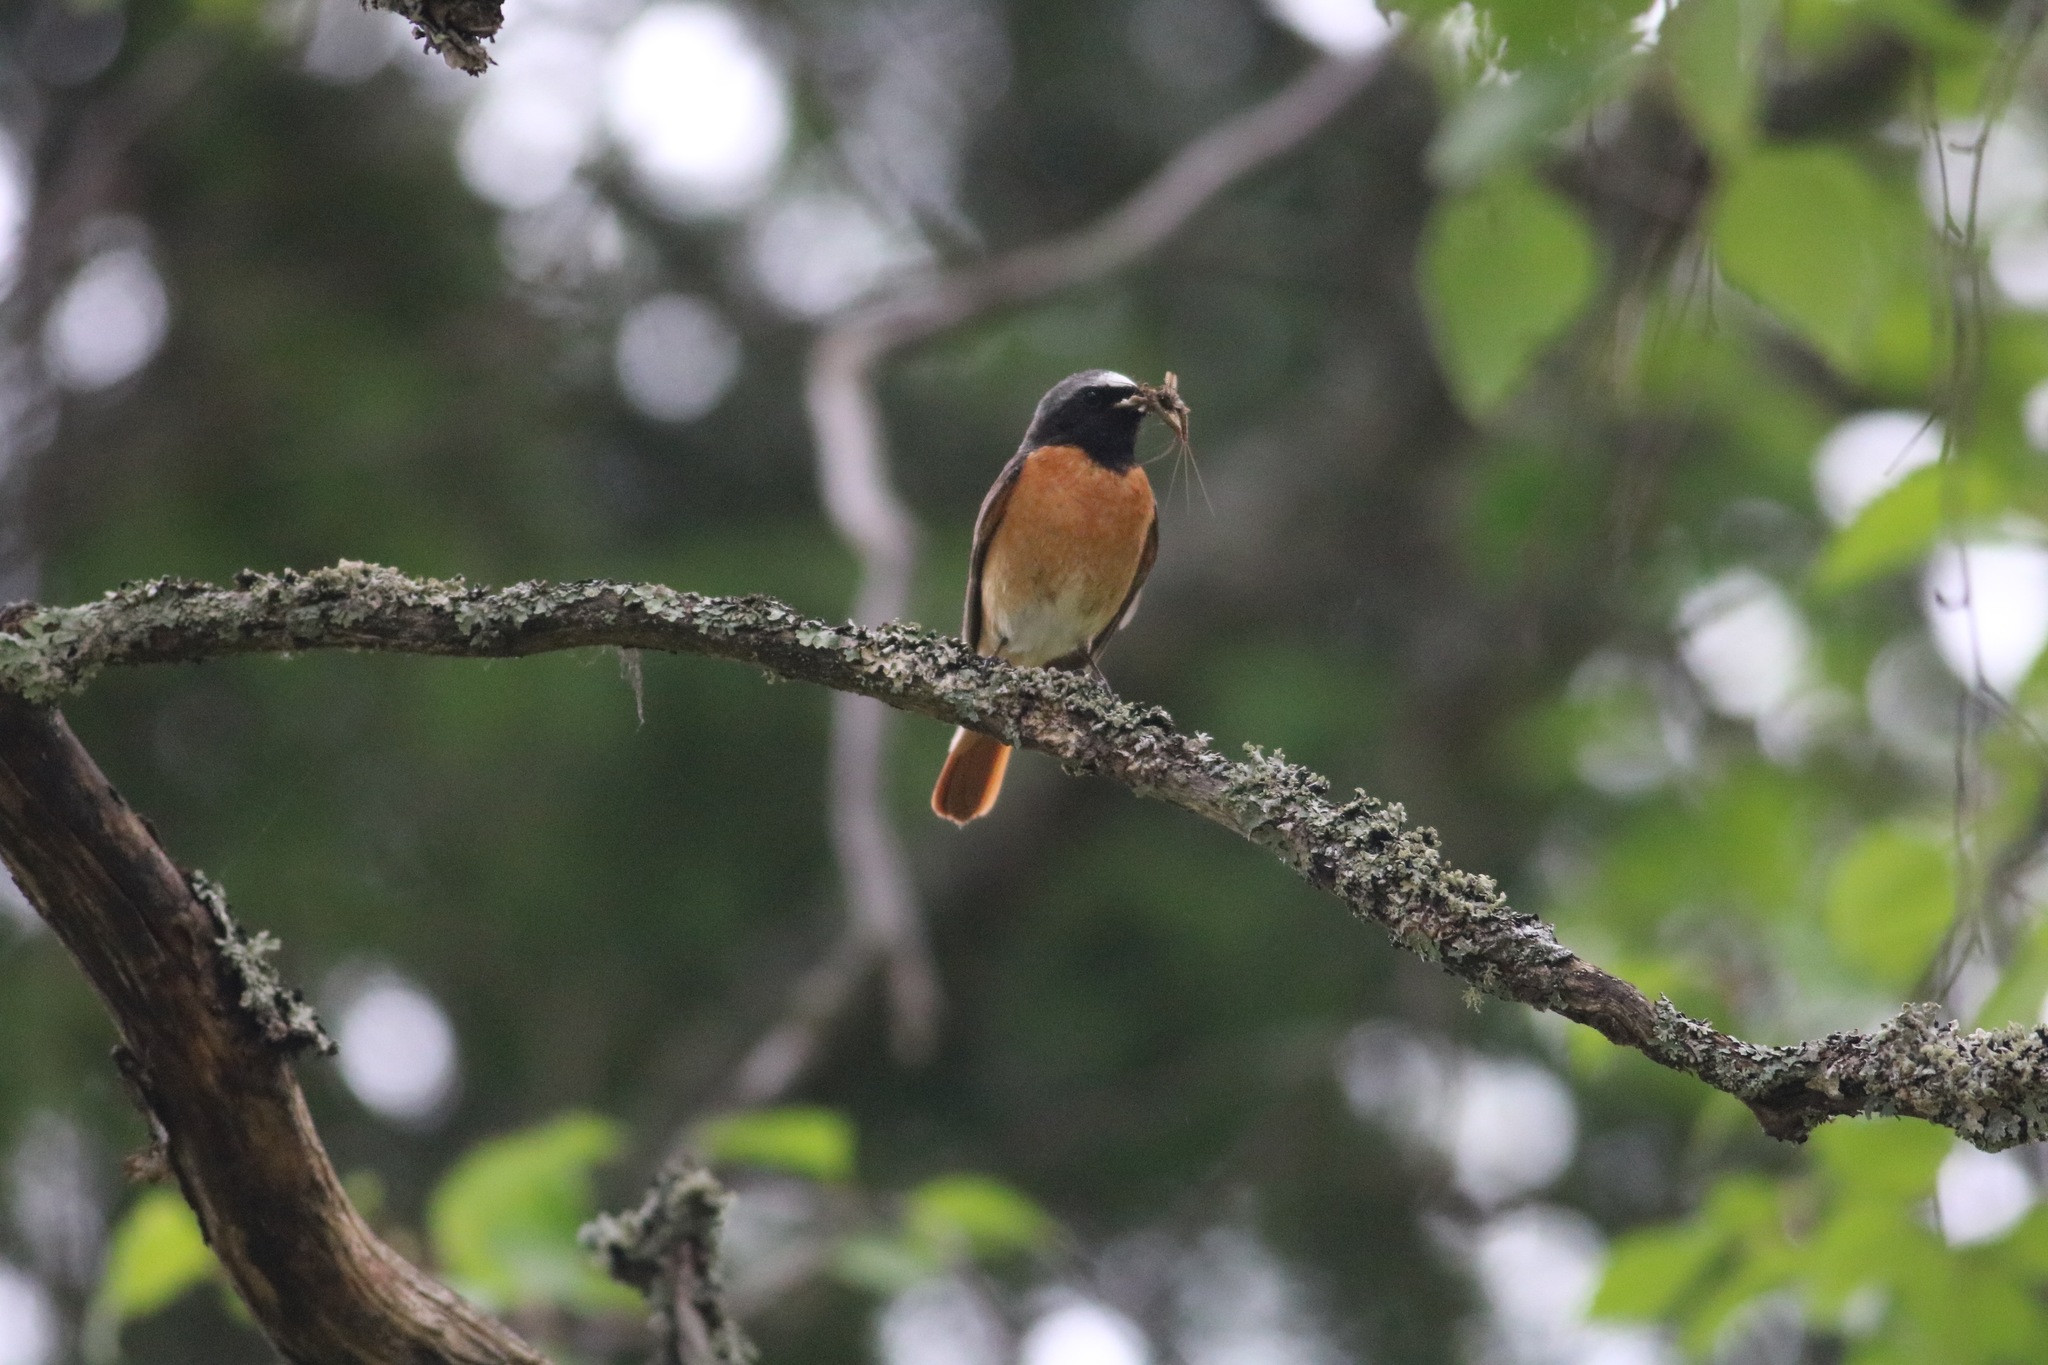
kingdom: Animalia
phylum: Chordata
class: Aves
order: Passeriformes
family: Muscicapidae
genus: Phoenicurus
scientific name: Phoenicurus phoenicurus
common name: Common redstart
